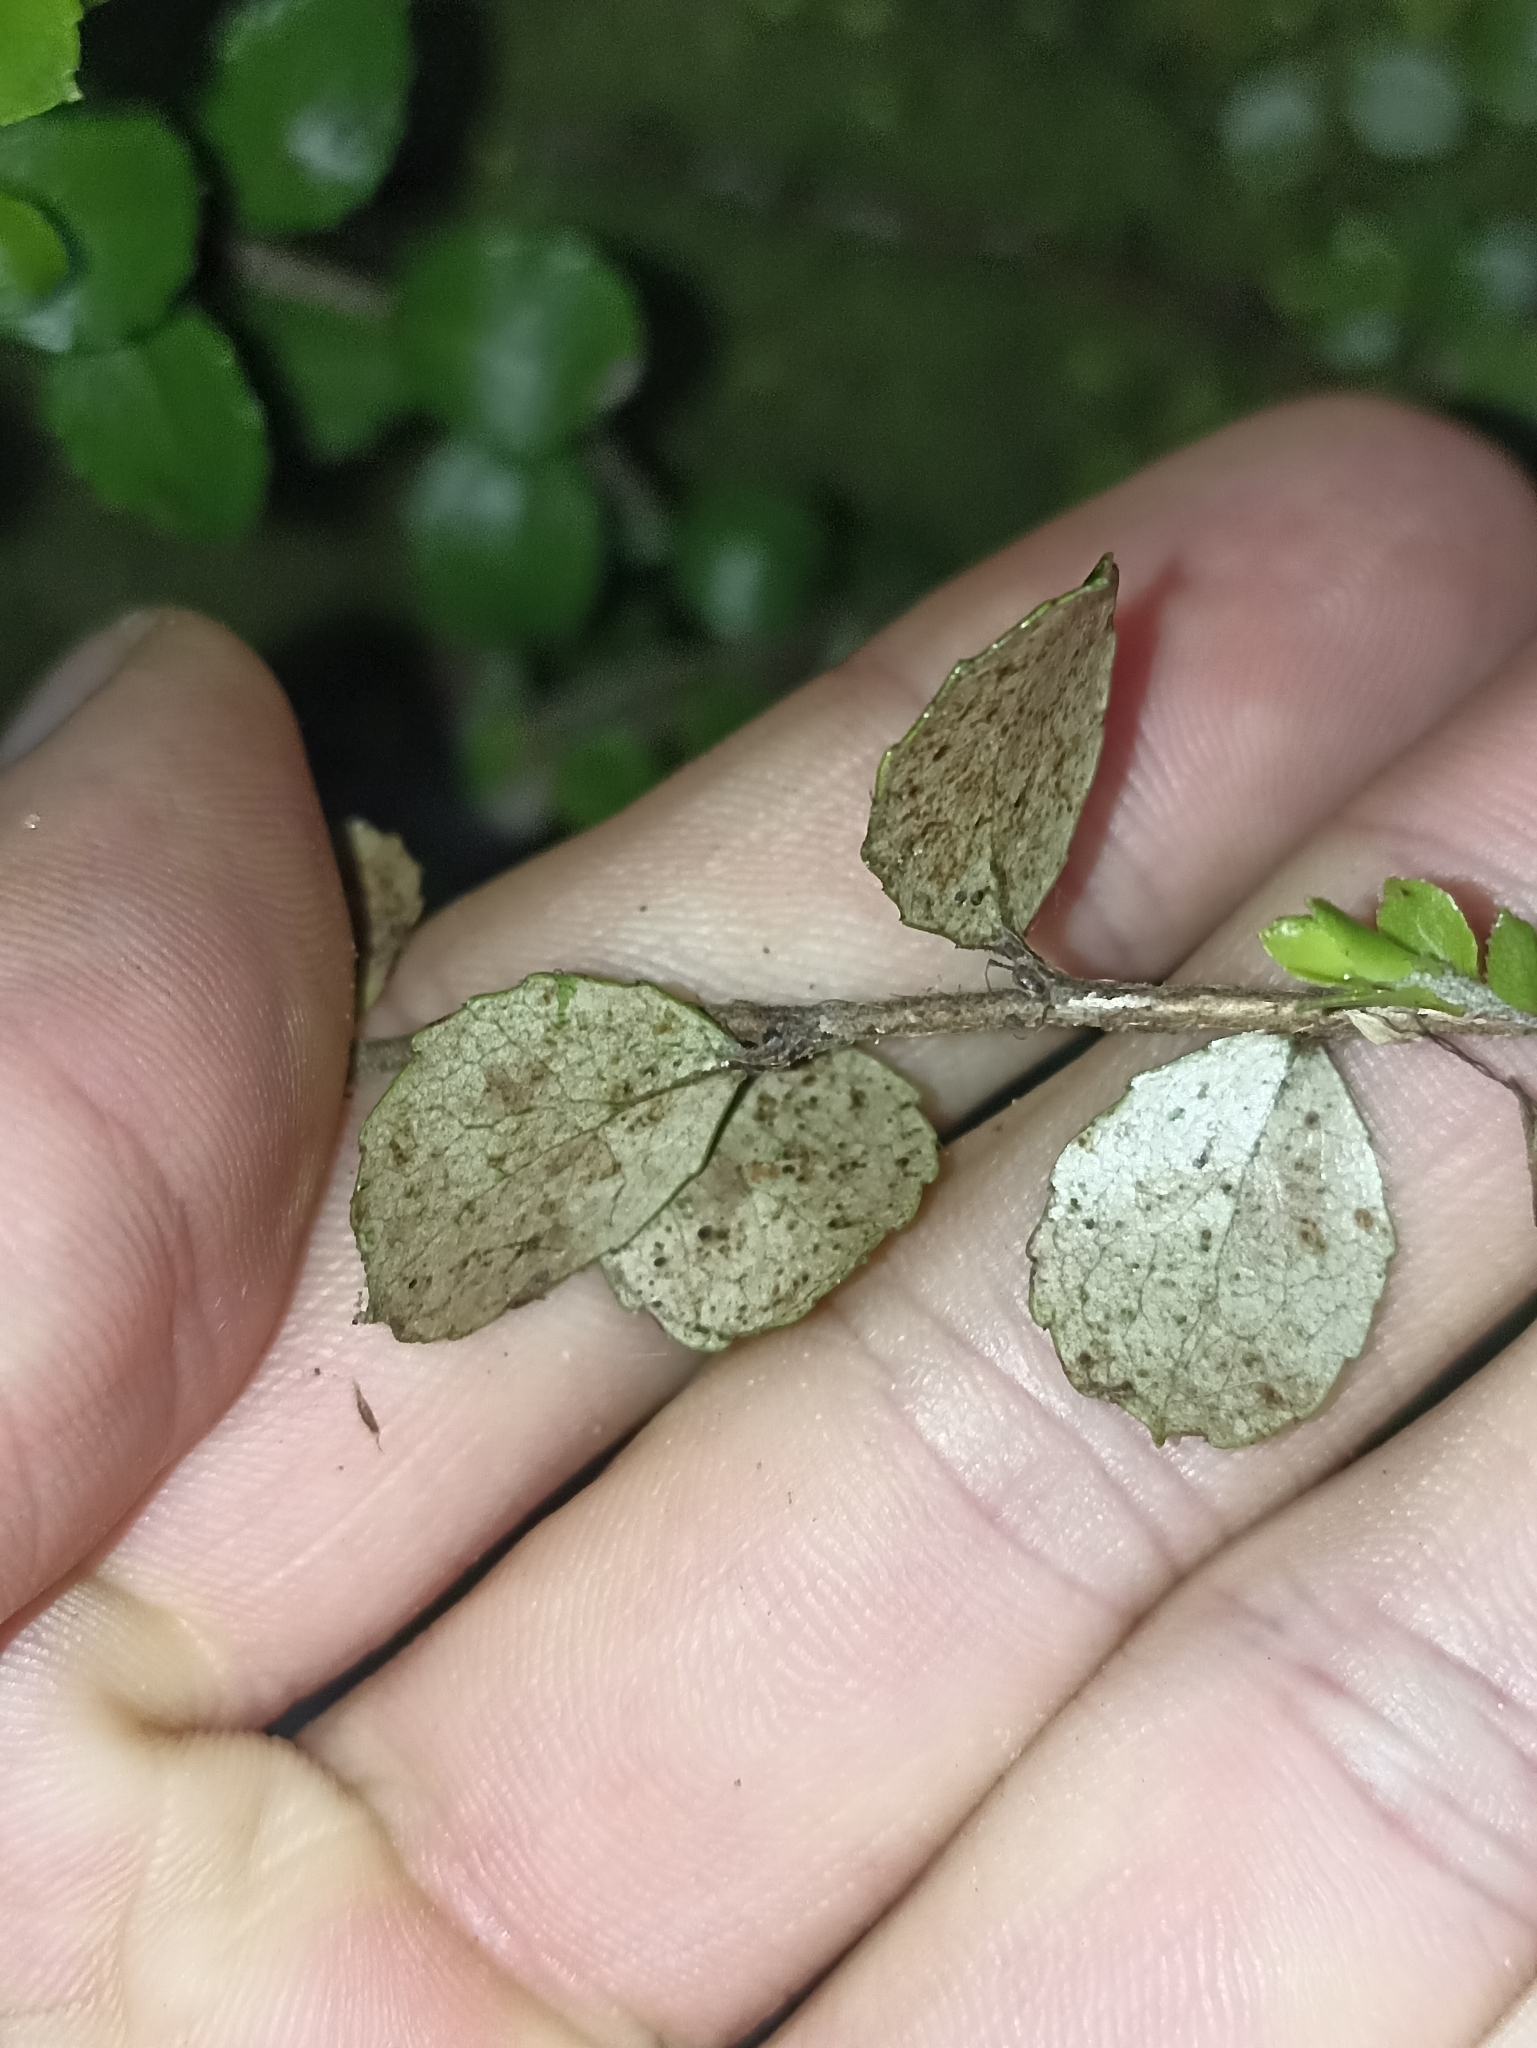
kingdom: Plantae
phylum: Tracheophyta
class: Magnoliopsida
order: Ericales
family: Ericaceae
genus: Gaultheria
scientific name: Gaultheria antipoda
